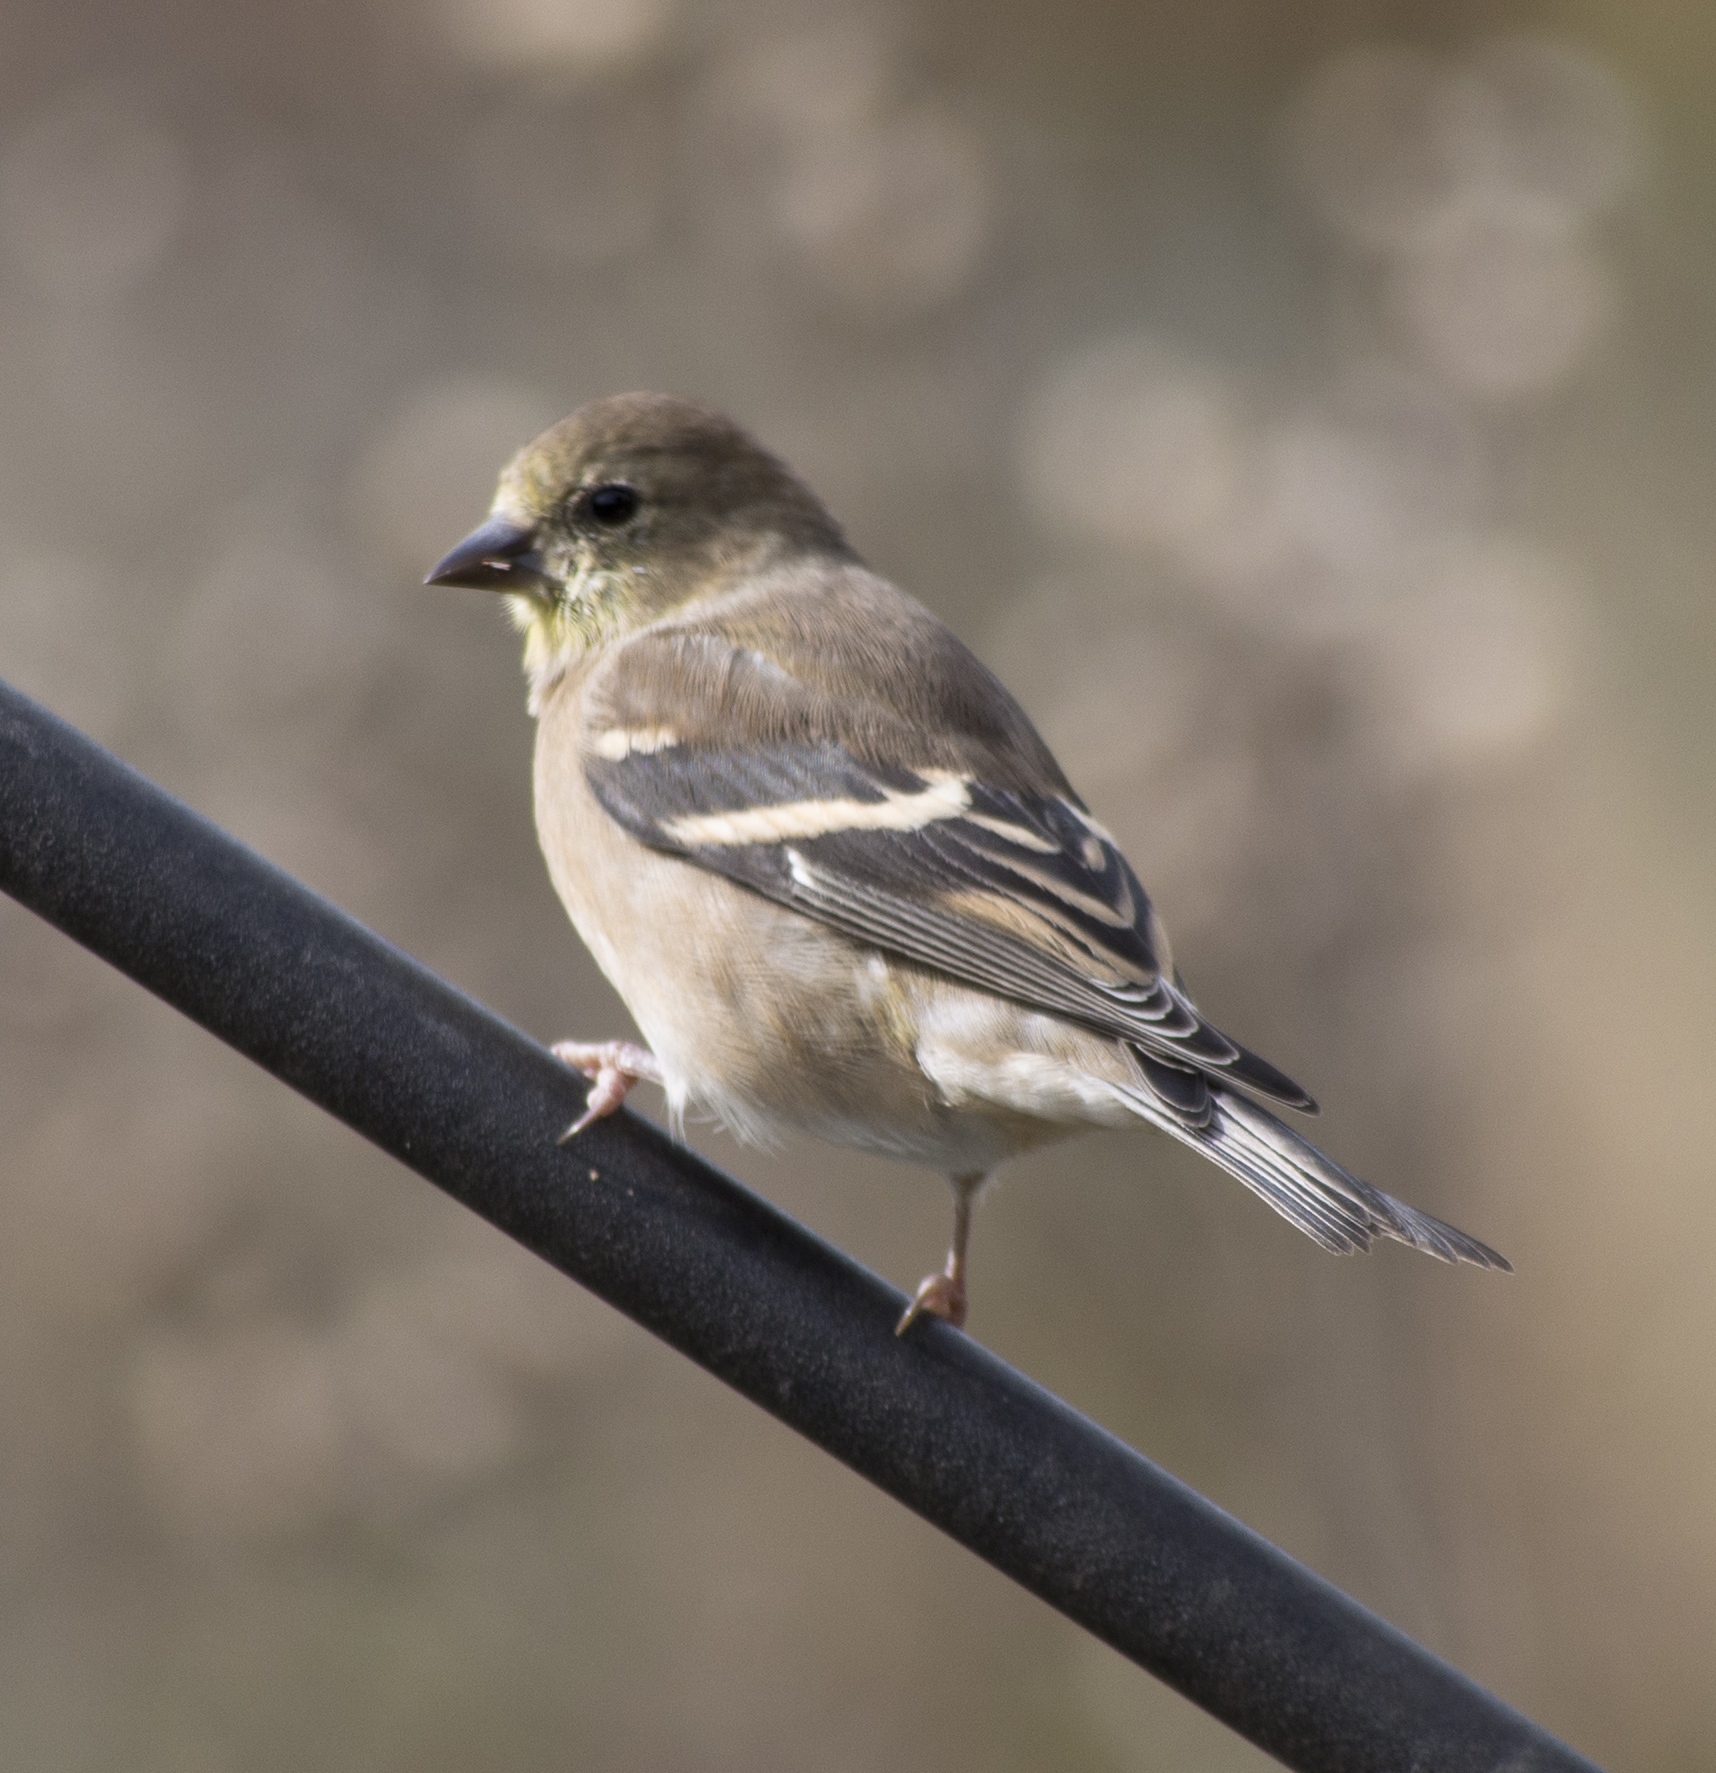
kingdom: Animalia
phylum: Chordata
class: Aves
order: Passeriformes
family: Fringillidae
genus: Spinus
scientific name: Spinus tristis
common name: American goldfinch
